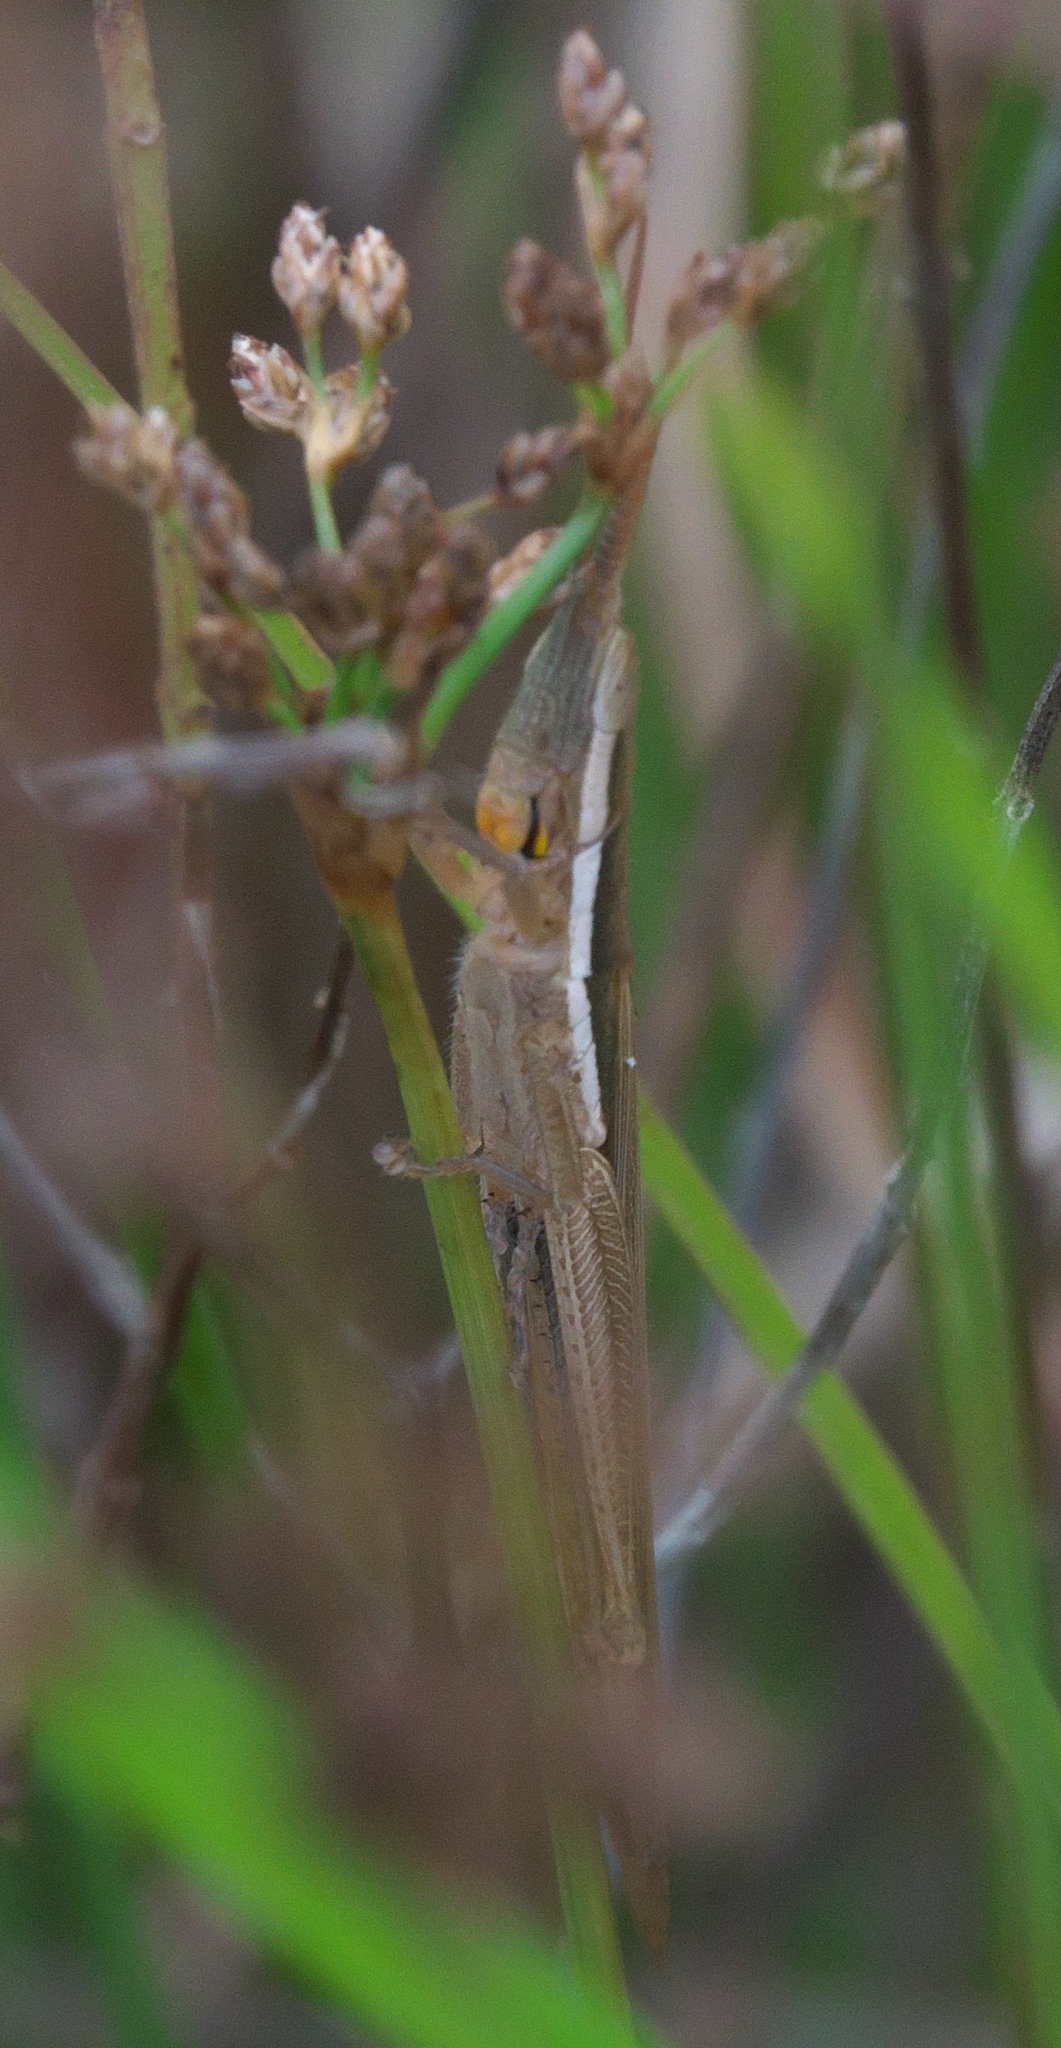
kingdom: Animalia
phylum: Arthropoda
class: Insecta
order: Orthoptera
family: Acrididae
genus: Leptysma
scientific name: Leptysma marginicollis
